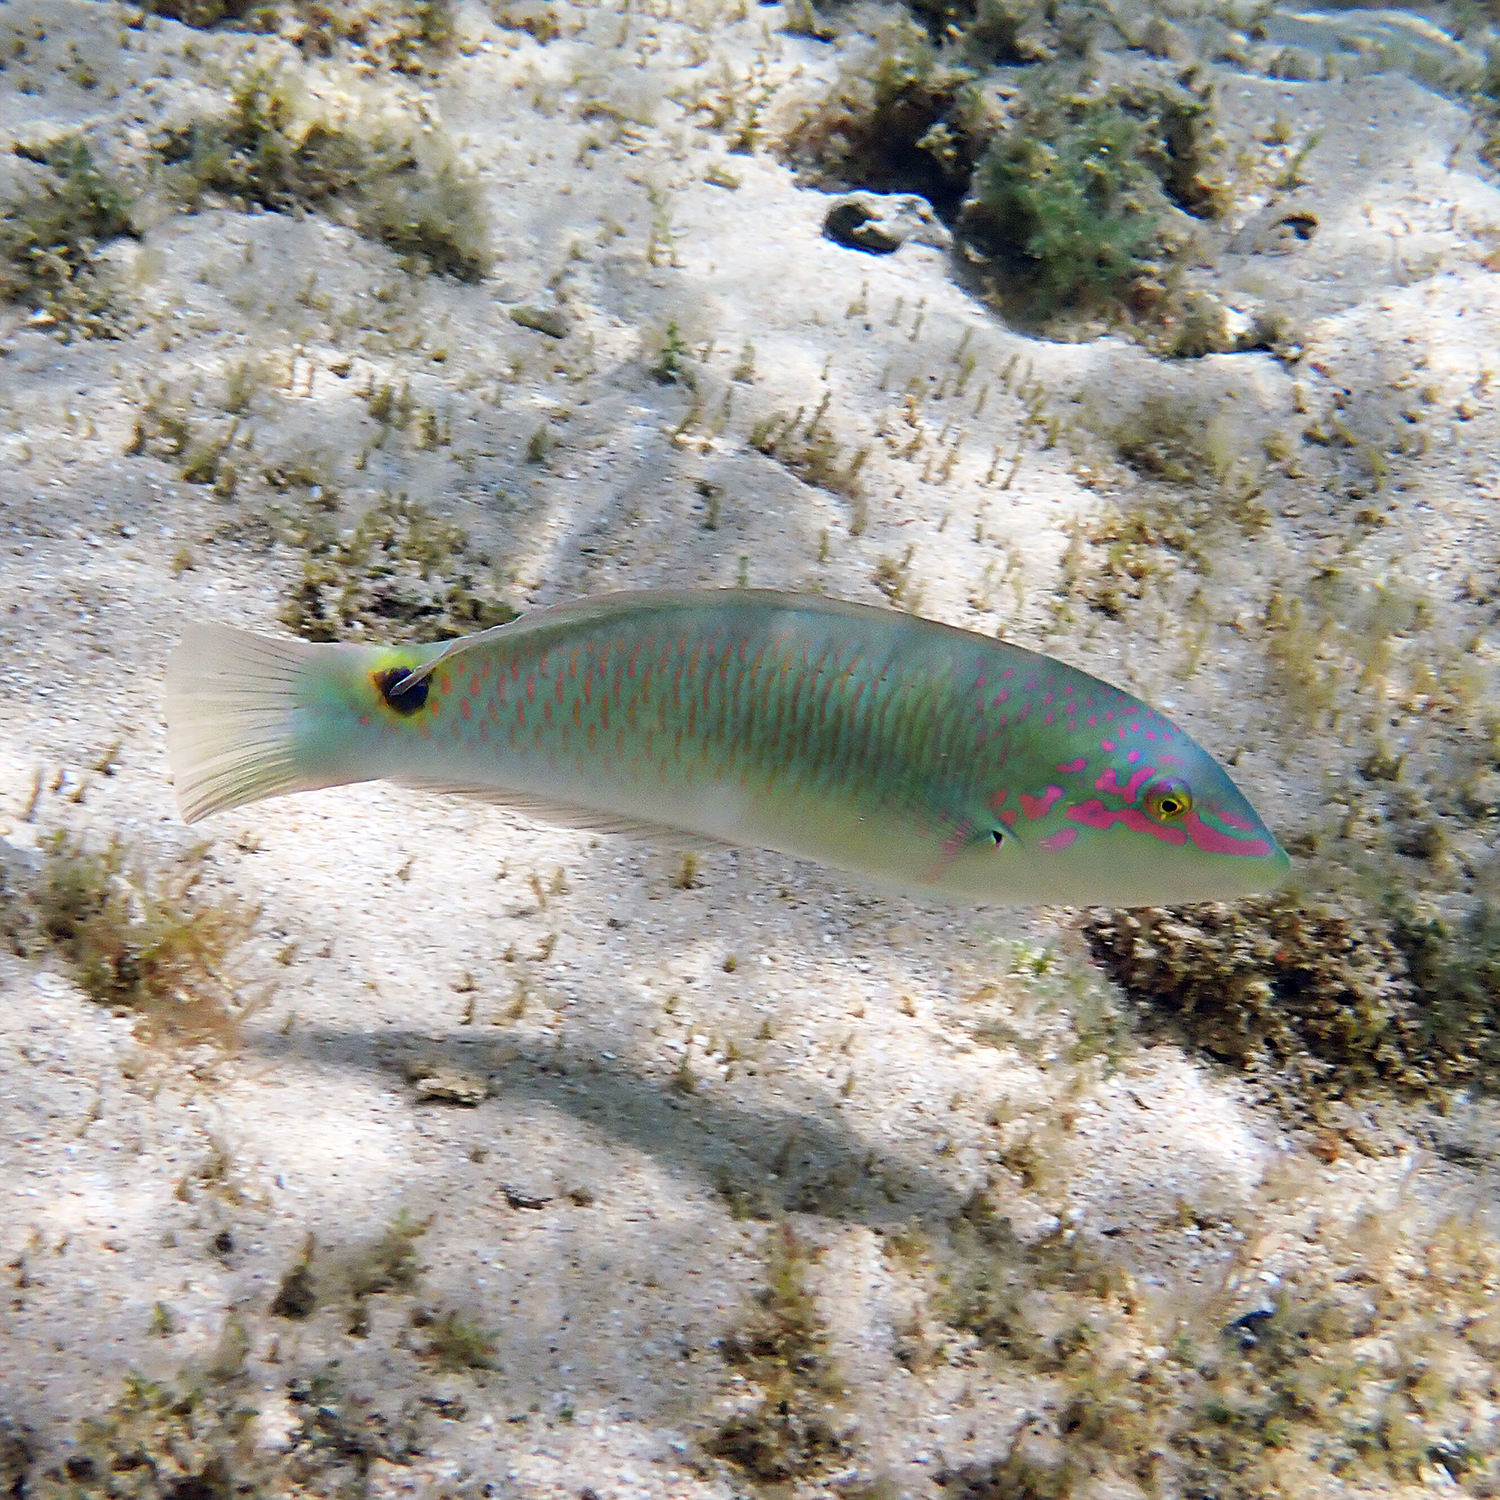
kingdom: Animalia
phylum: Chordata
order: Perciformes
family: Labridae
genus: Halichoeres
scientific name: Halichoeres trimaculatus
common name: Three-spot wrasse
